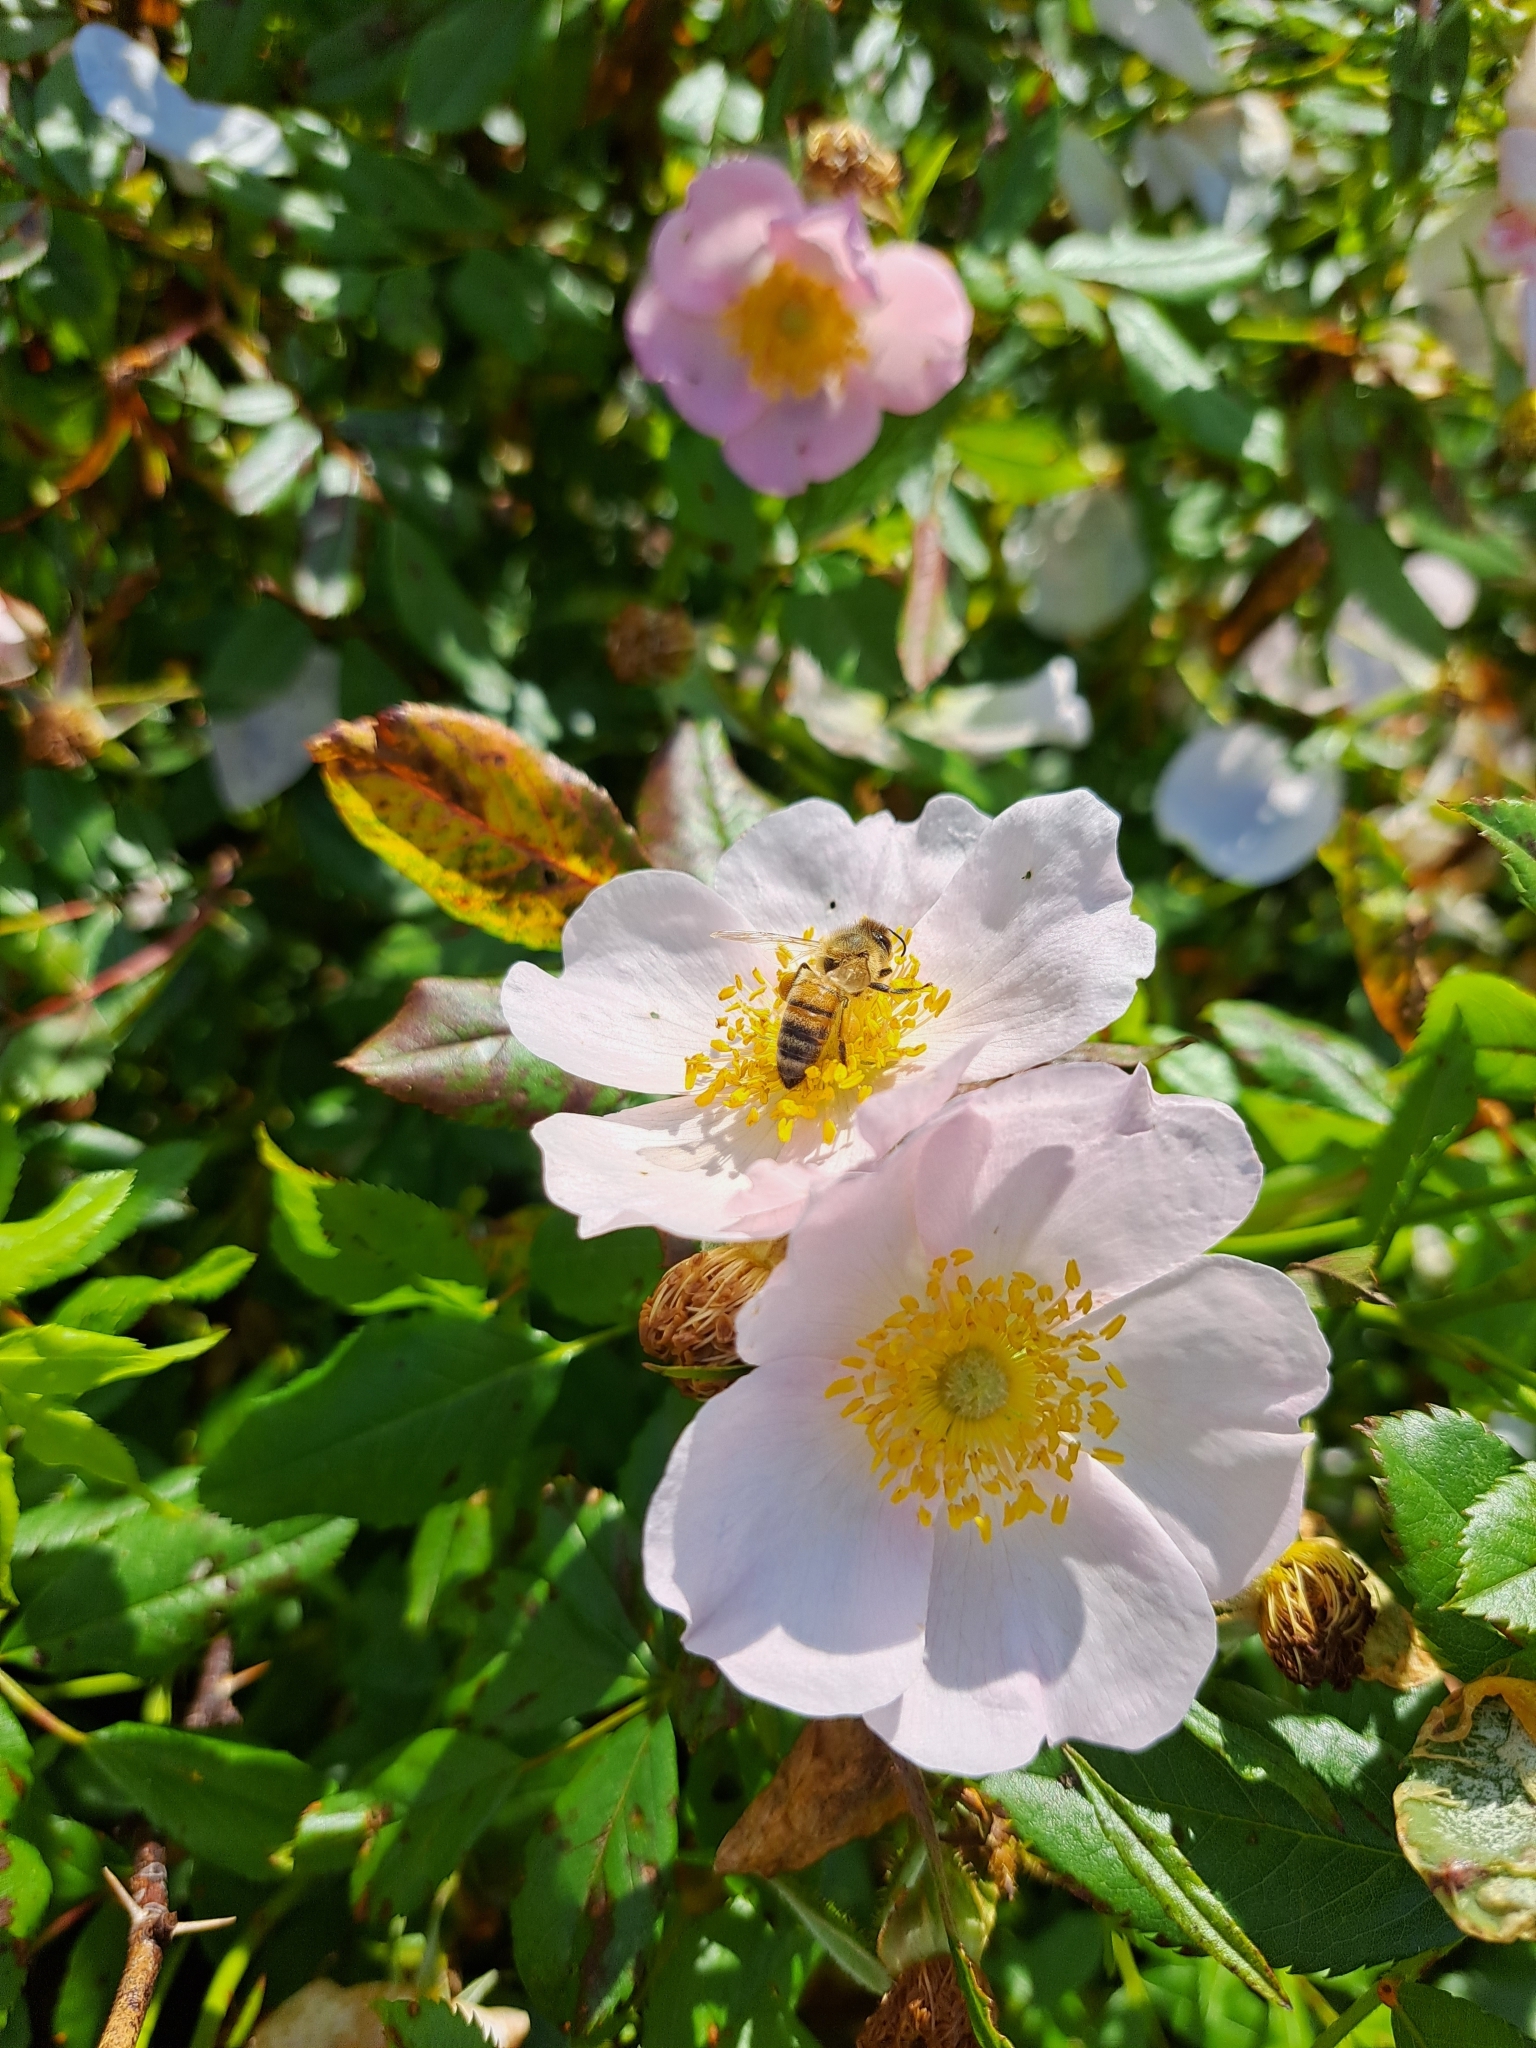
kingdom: Animalia
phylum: Arthropoda
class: Insecta
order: Hymenoptera
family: Apidae
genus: Apis
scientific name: Apis mellifera
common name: Honey bee
